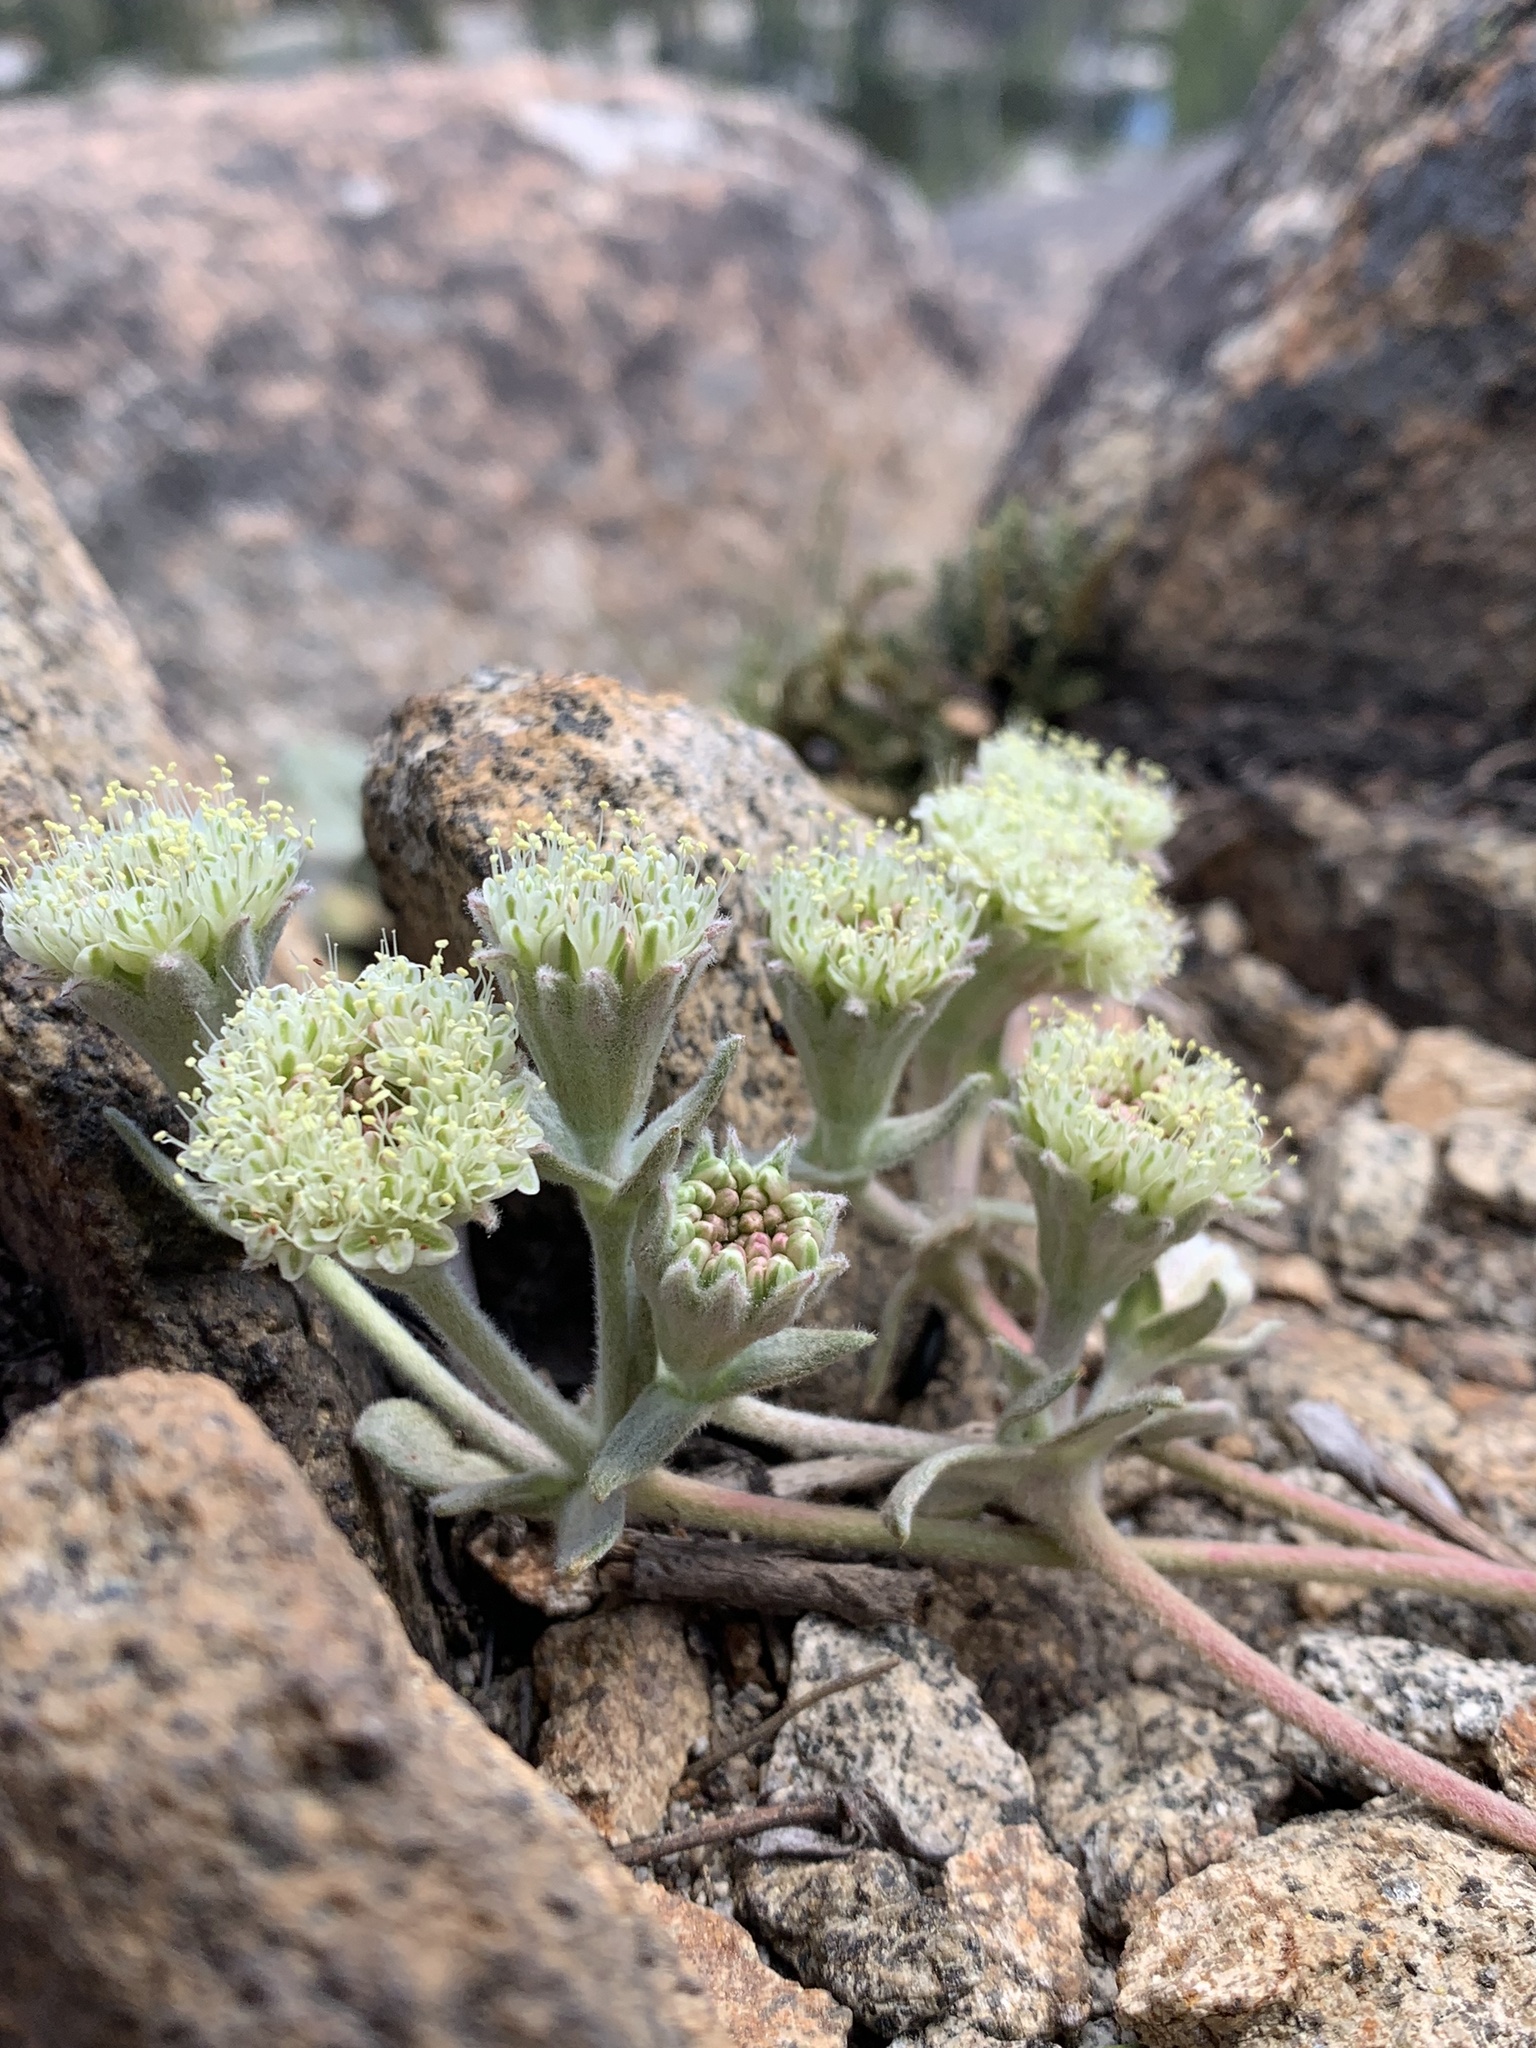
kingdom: Plantae
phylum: Tracheophyta
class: Magnoliopsida
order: Caryophyllales
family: Polygonaceae
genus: Eriogonum
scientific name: Eriogonum lobbii
